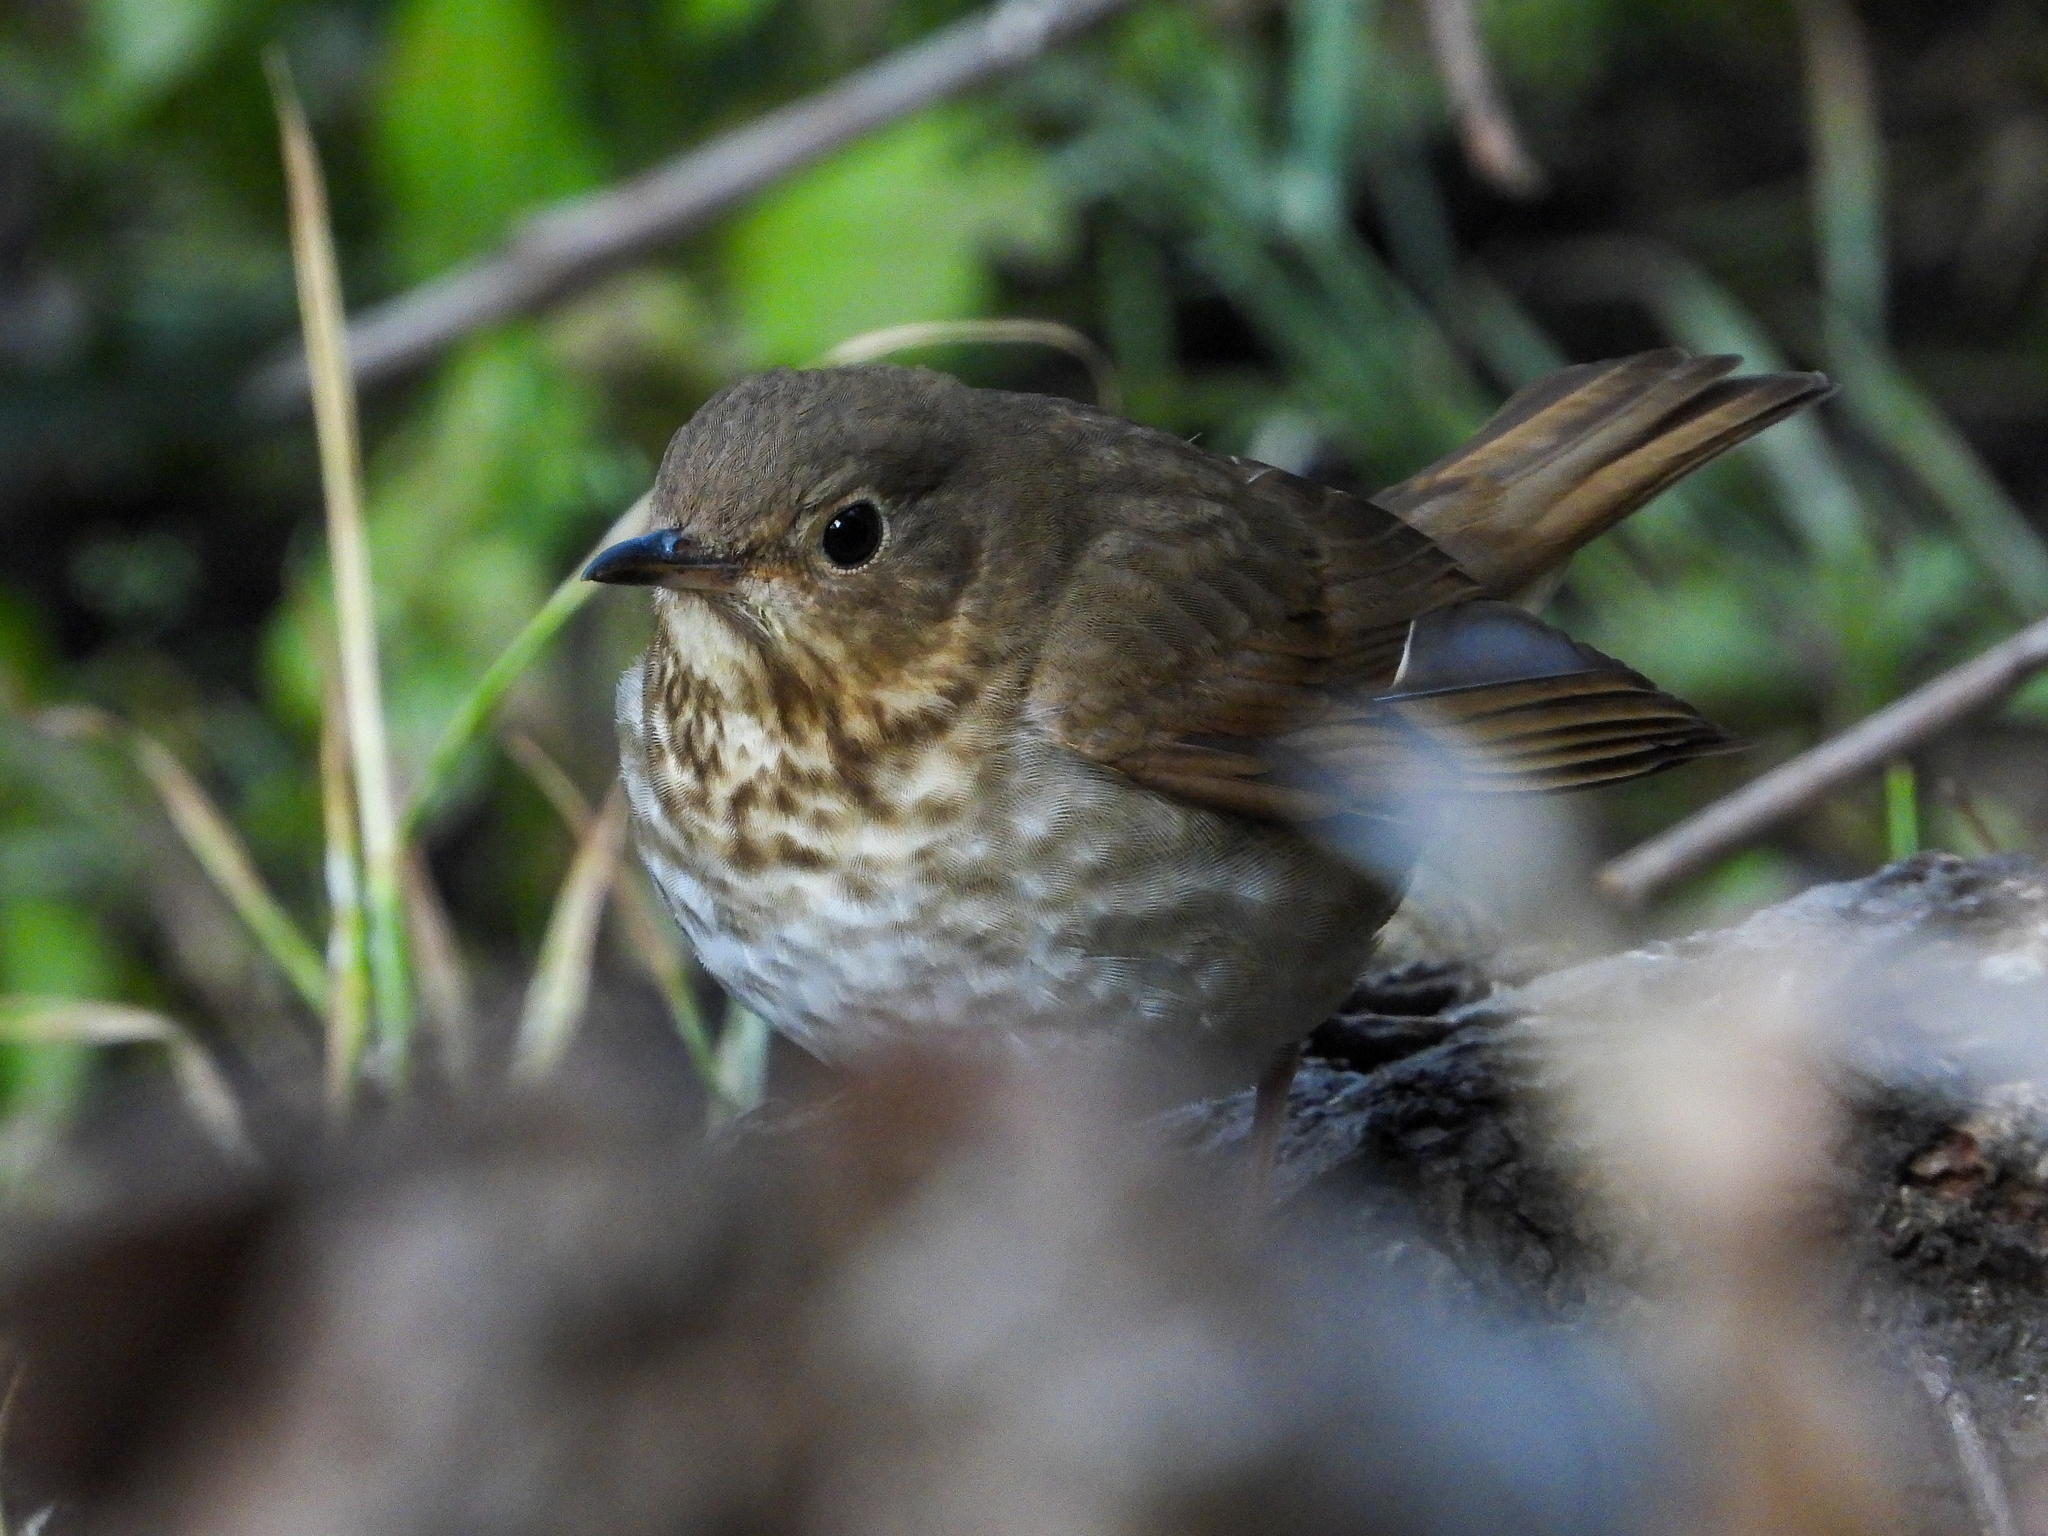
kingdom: Animalia
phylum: Chordata
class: Aves
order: Passeriformes
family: Turdidae
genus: Catharus
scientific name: Catharus ustulatus
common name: Swainson's thrush
